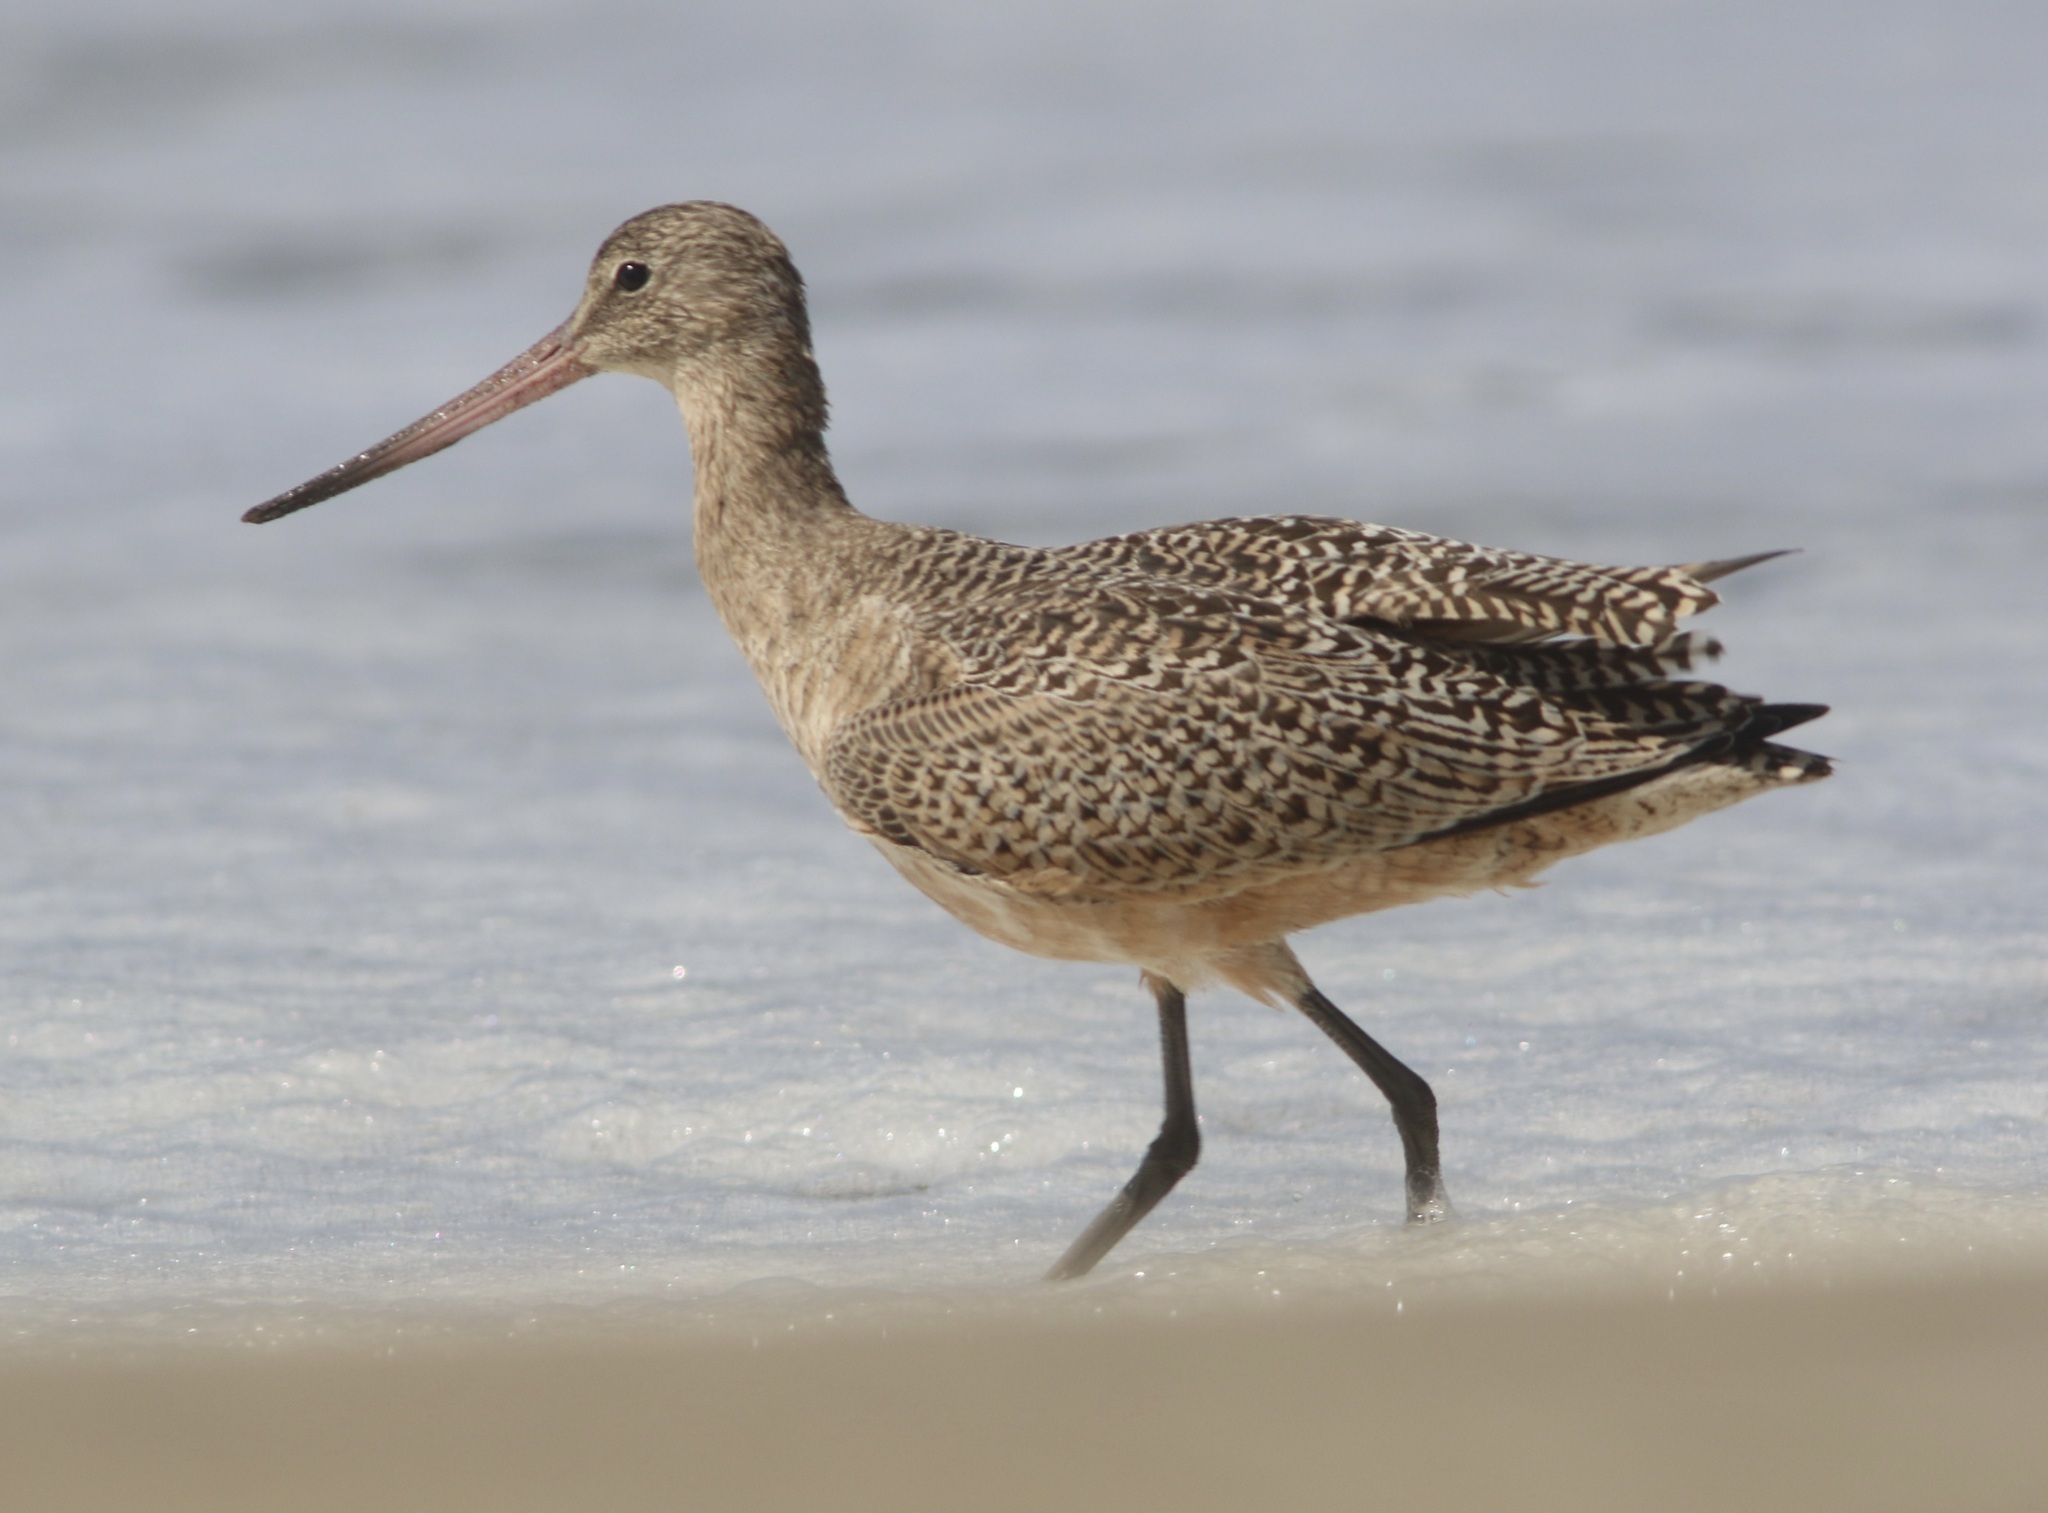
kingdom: Animalia
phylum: Chordata
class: Aves
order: Charadriiformes
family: Scolopacidae
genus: Limosa
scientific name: Limosa fedoa
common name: Marbled godwit
